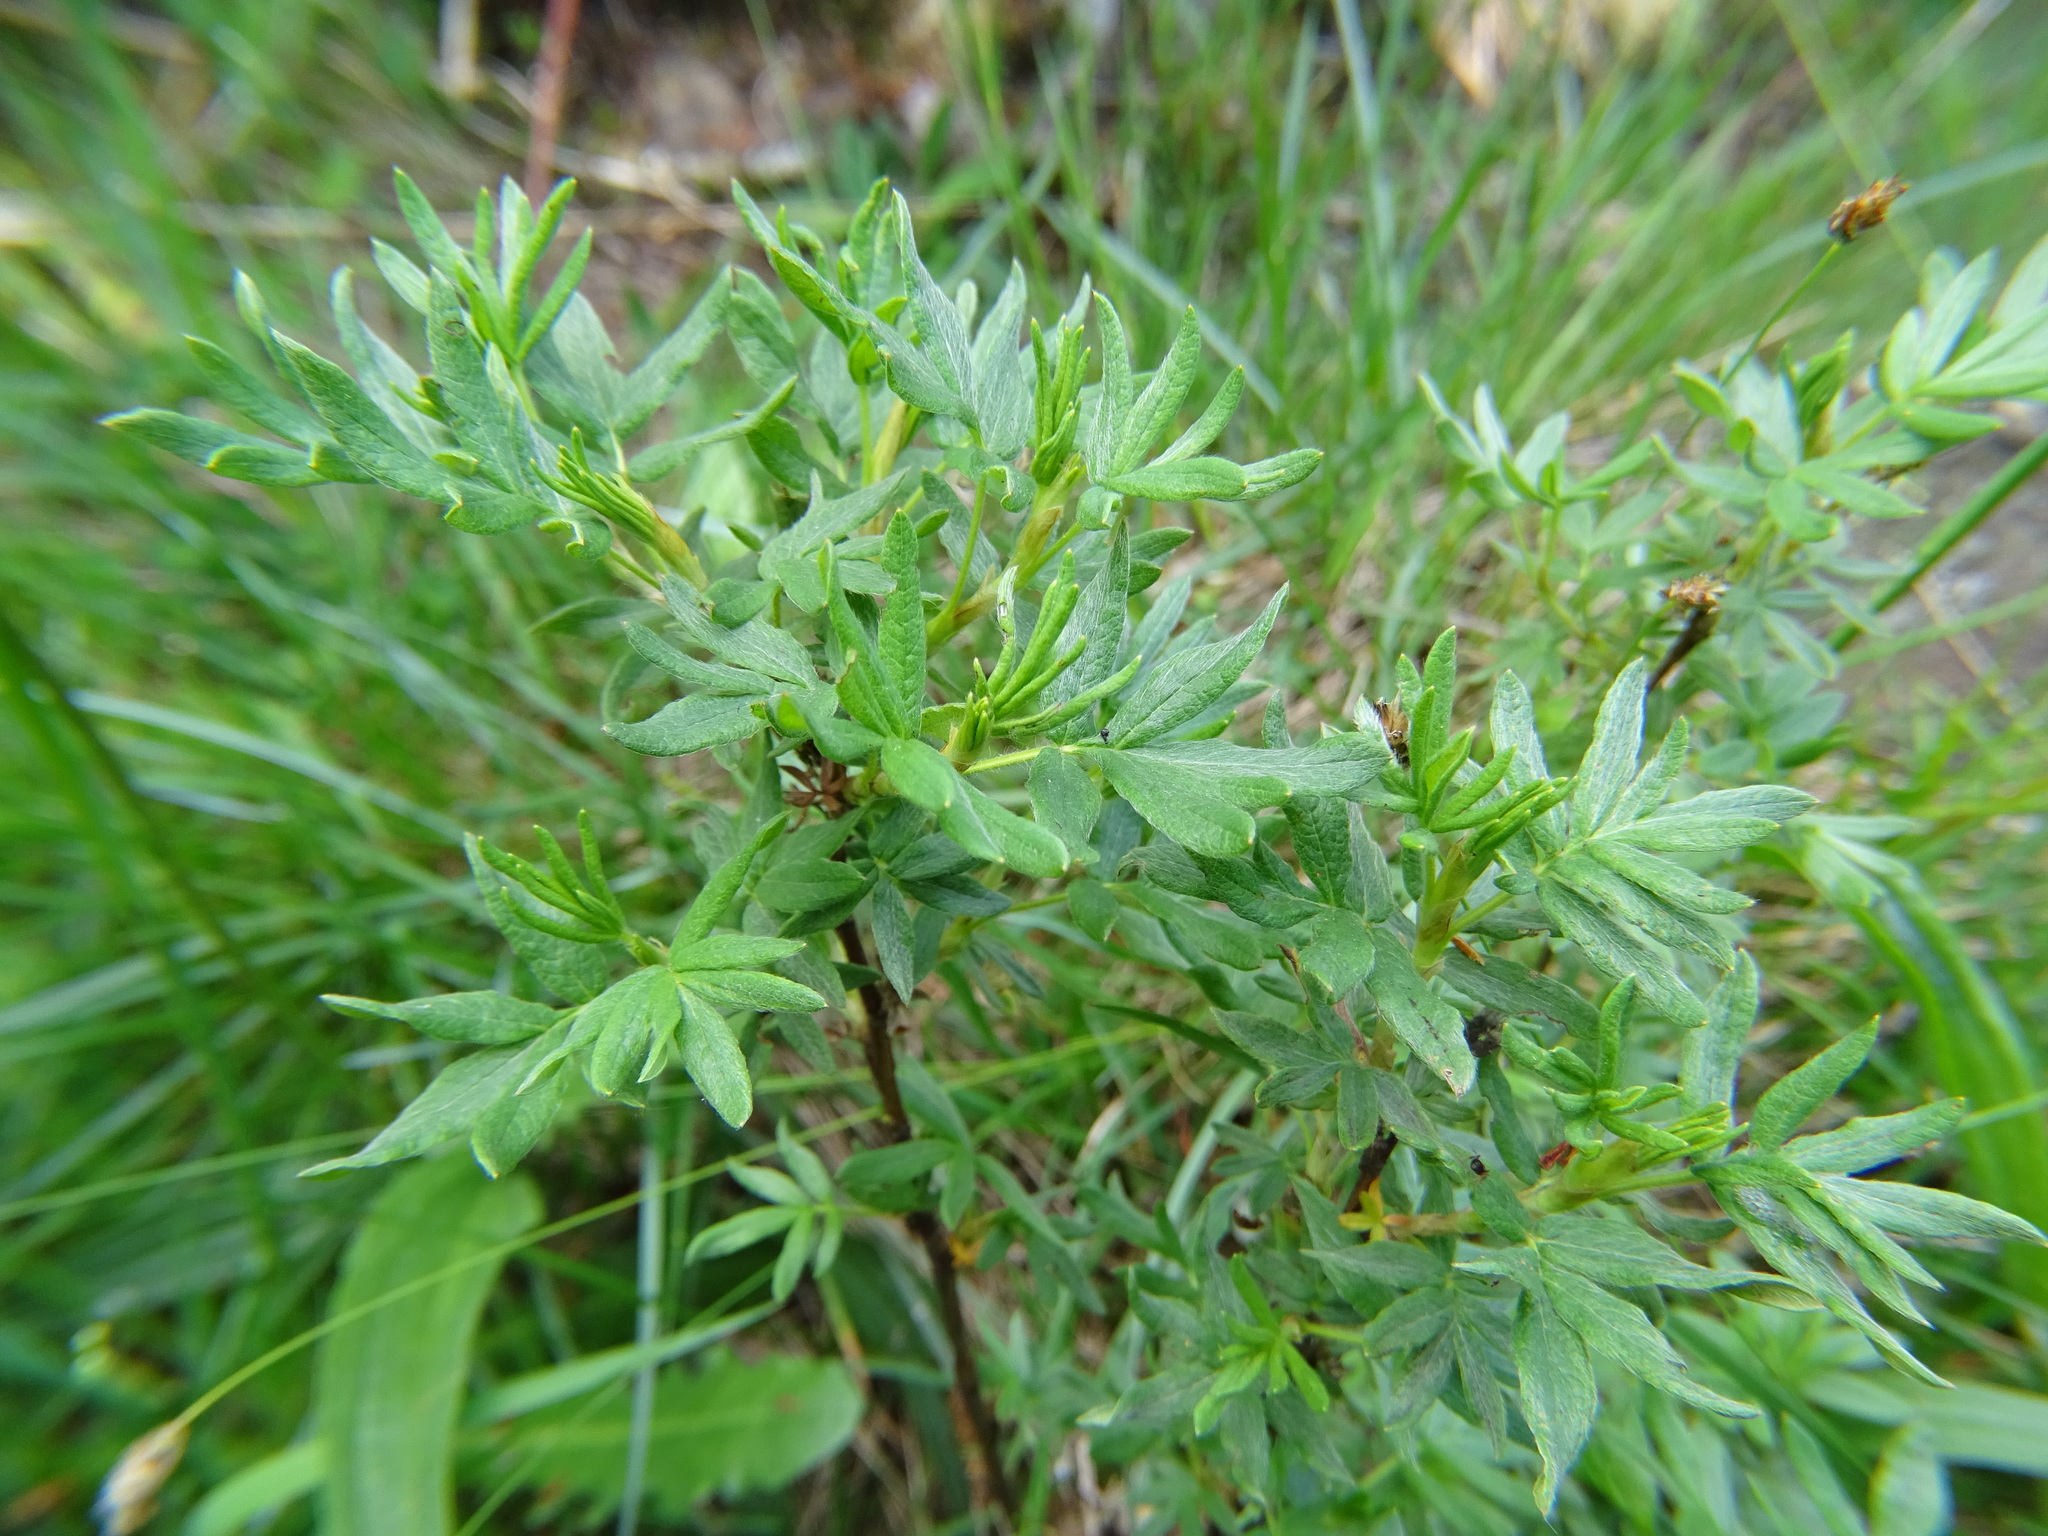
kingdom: Plantae
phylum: Tracheophyta
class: Magnoliopsida
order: Rosales
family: Rosaceae
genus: Dasiphora
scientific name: Dasiphora fruticosa
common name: Shrubby cinquefoil
